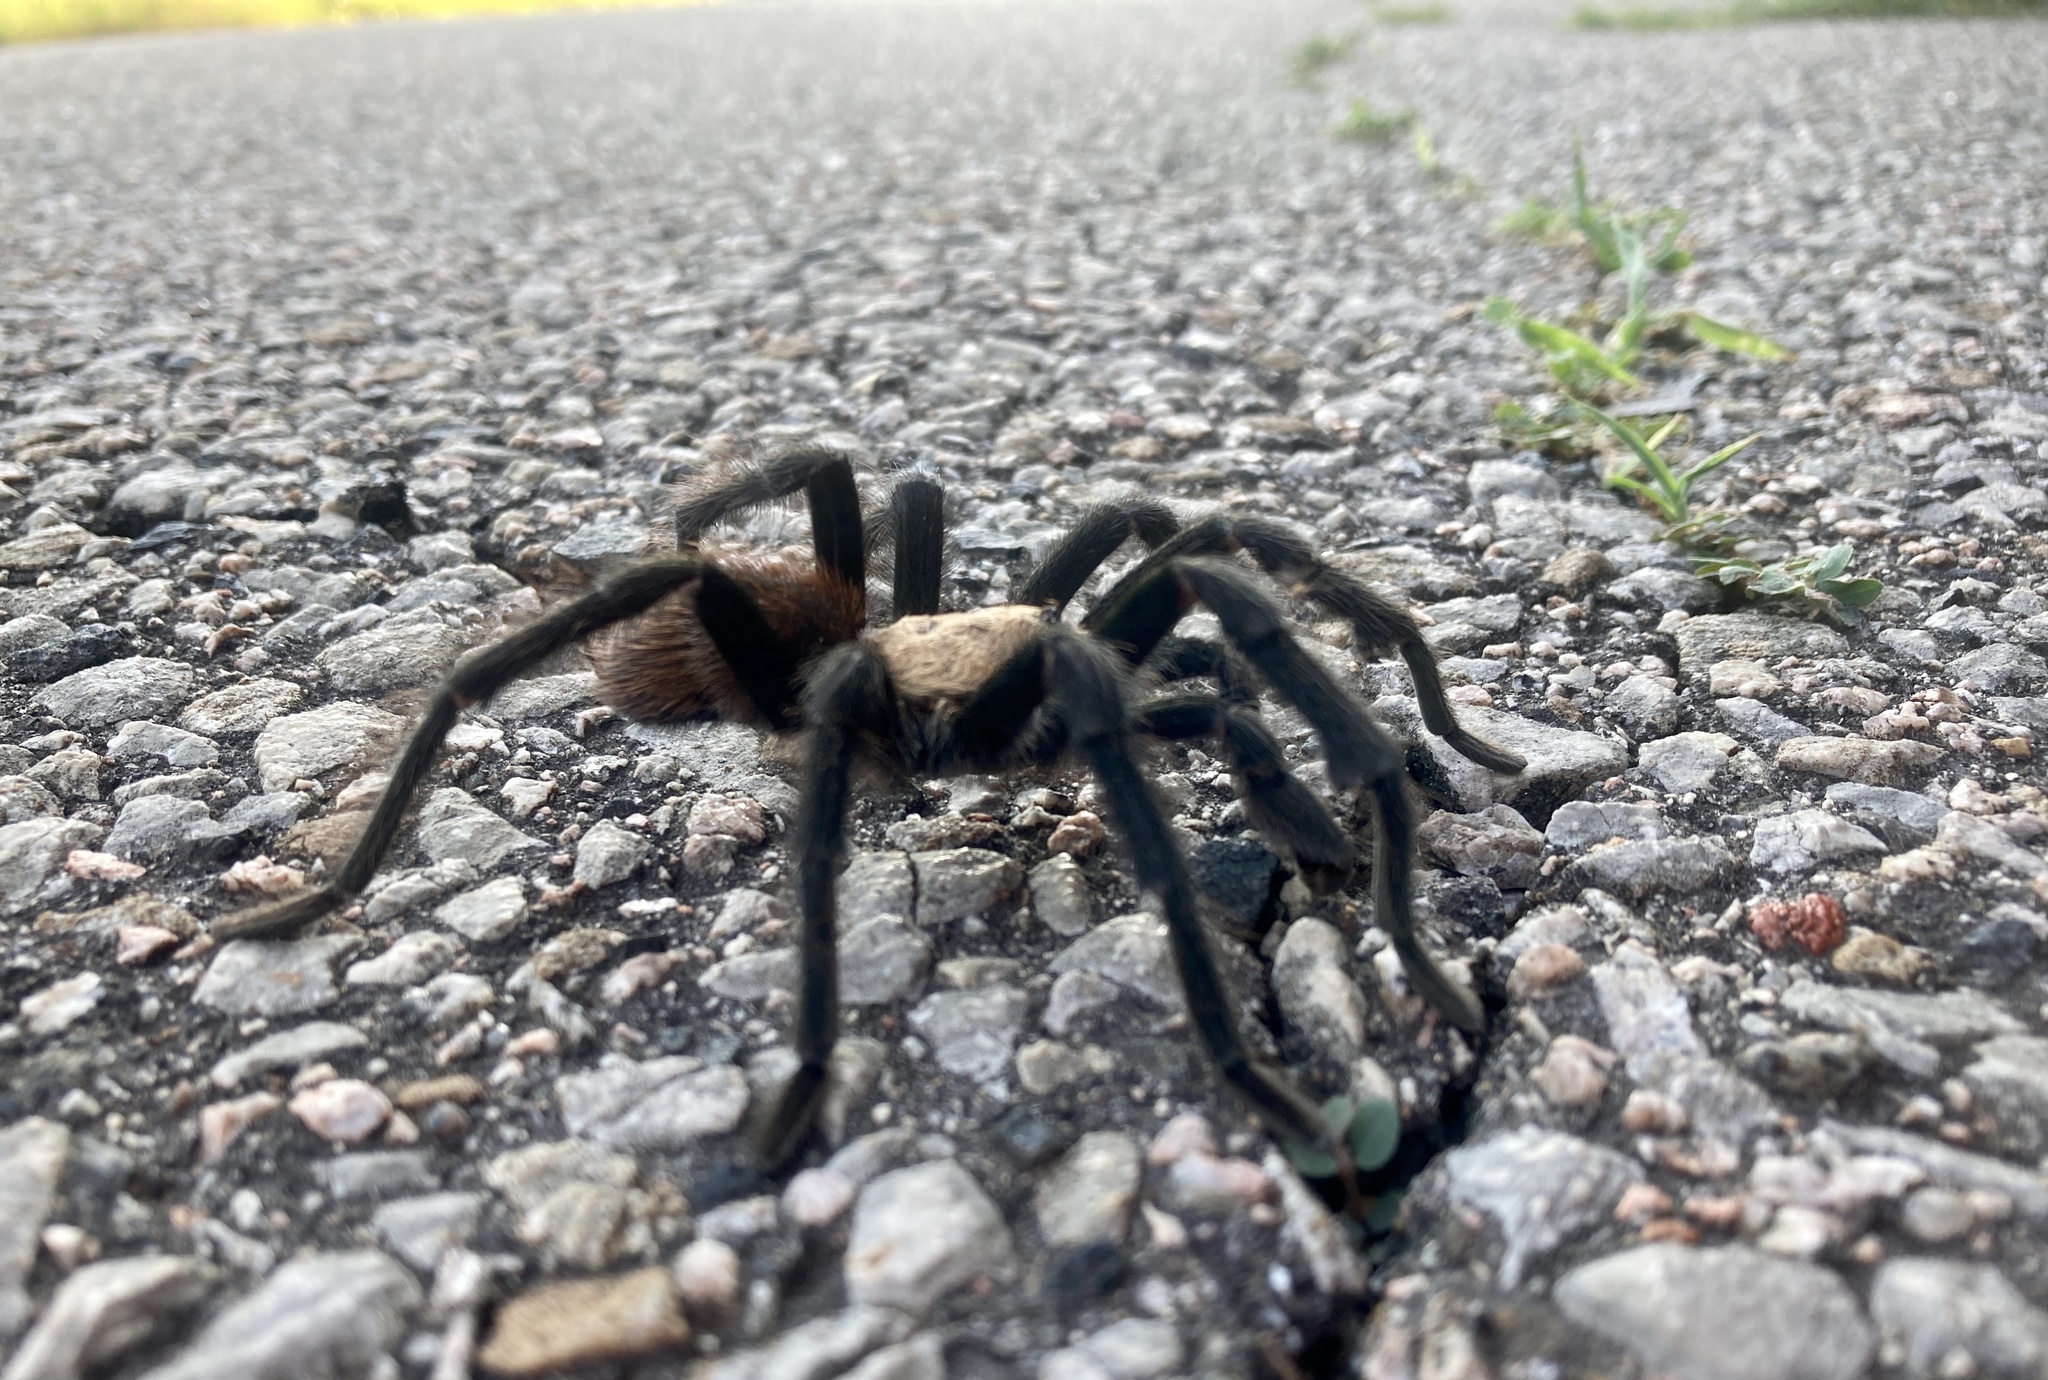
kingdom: Animalia
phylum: Arthropoda
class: Arachnida
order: Araneae
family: Theraphosidae
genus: Aphonopelma
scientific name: Aphonopelma hentzi
